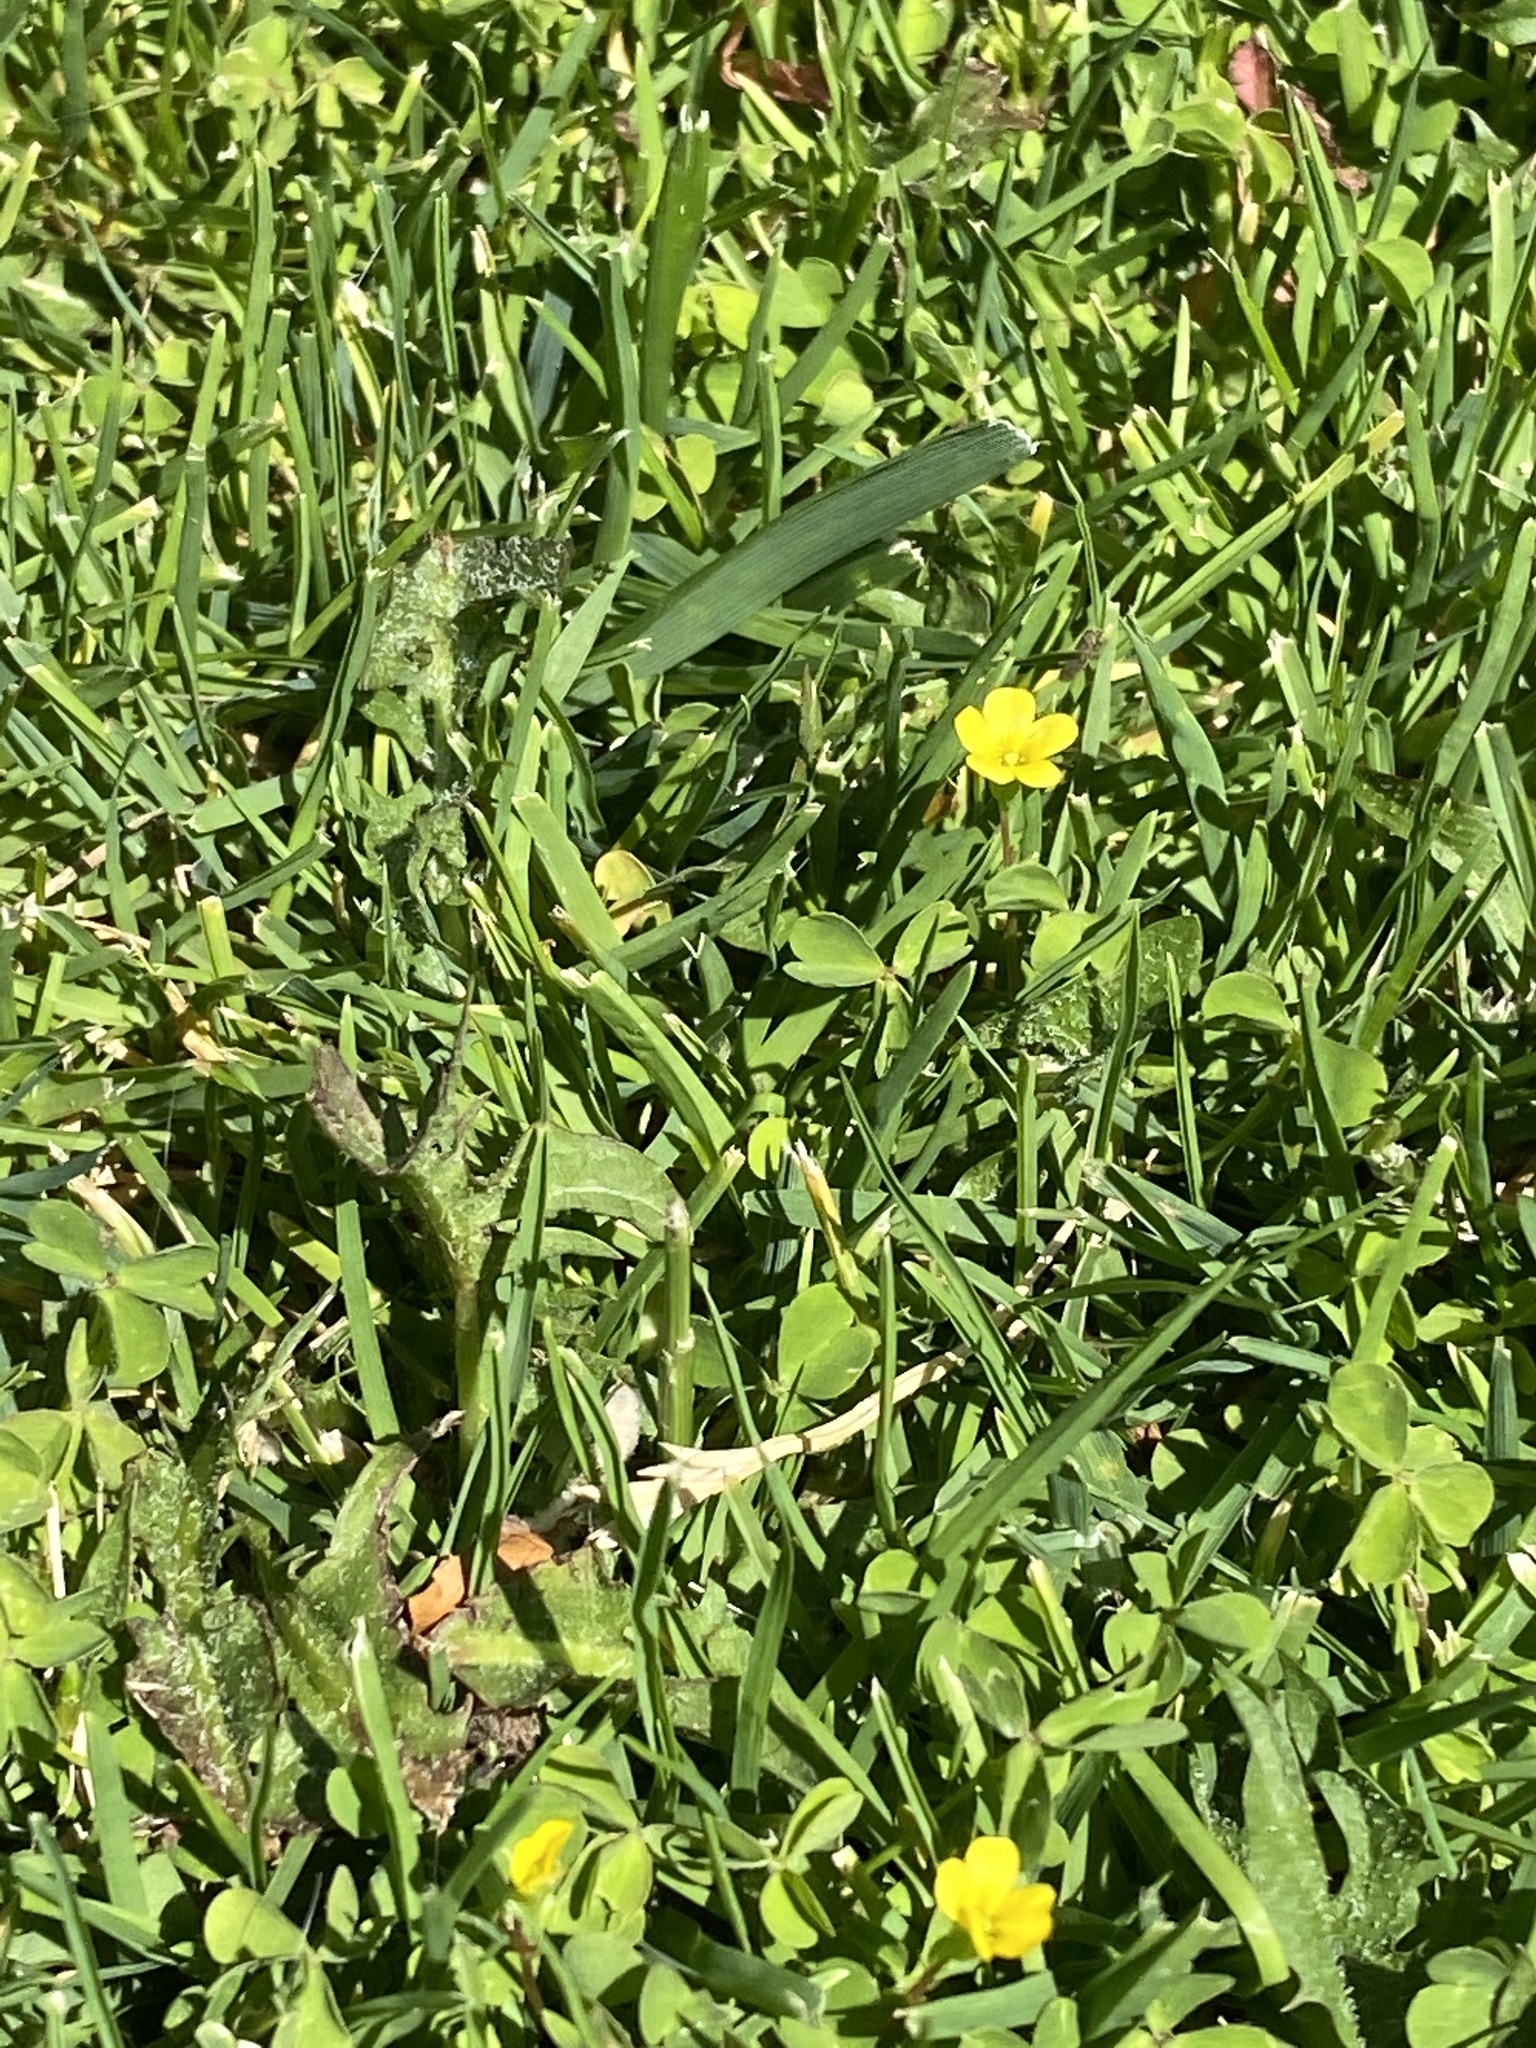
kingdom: Plantae
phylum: Tracheophyta
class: Magnoliopsida
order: Oxalidales
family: Oxalidaceae
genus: Oxalis
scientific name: Oxalis corniculata
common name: Procumbent yellow-sorrel
